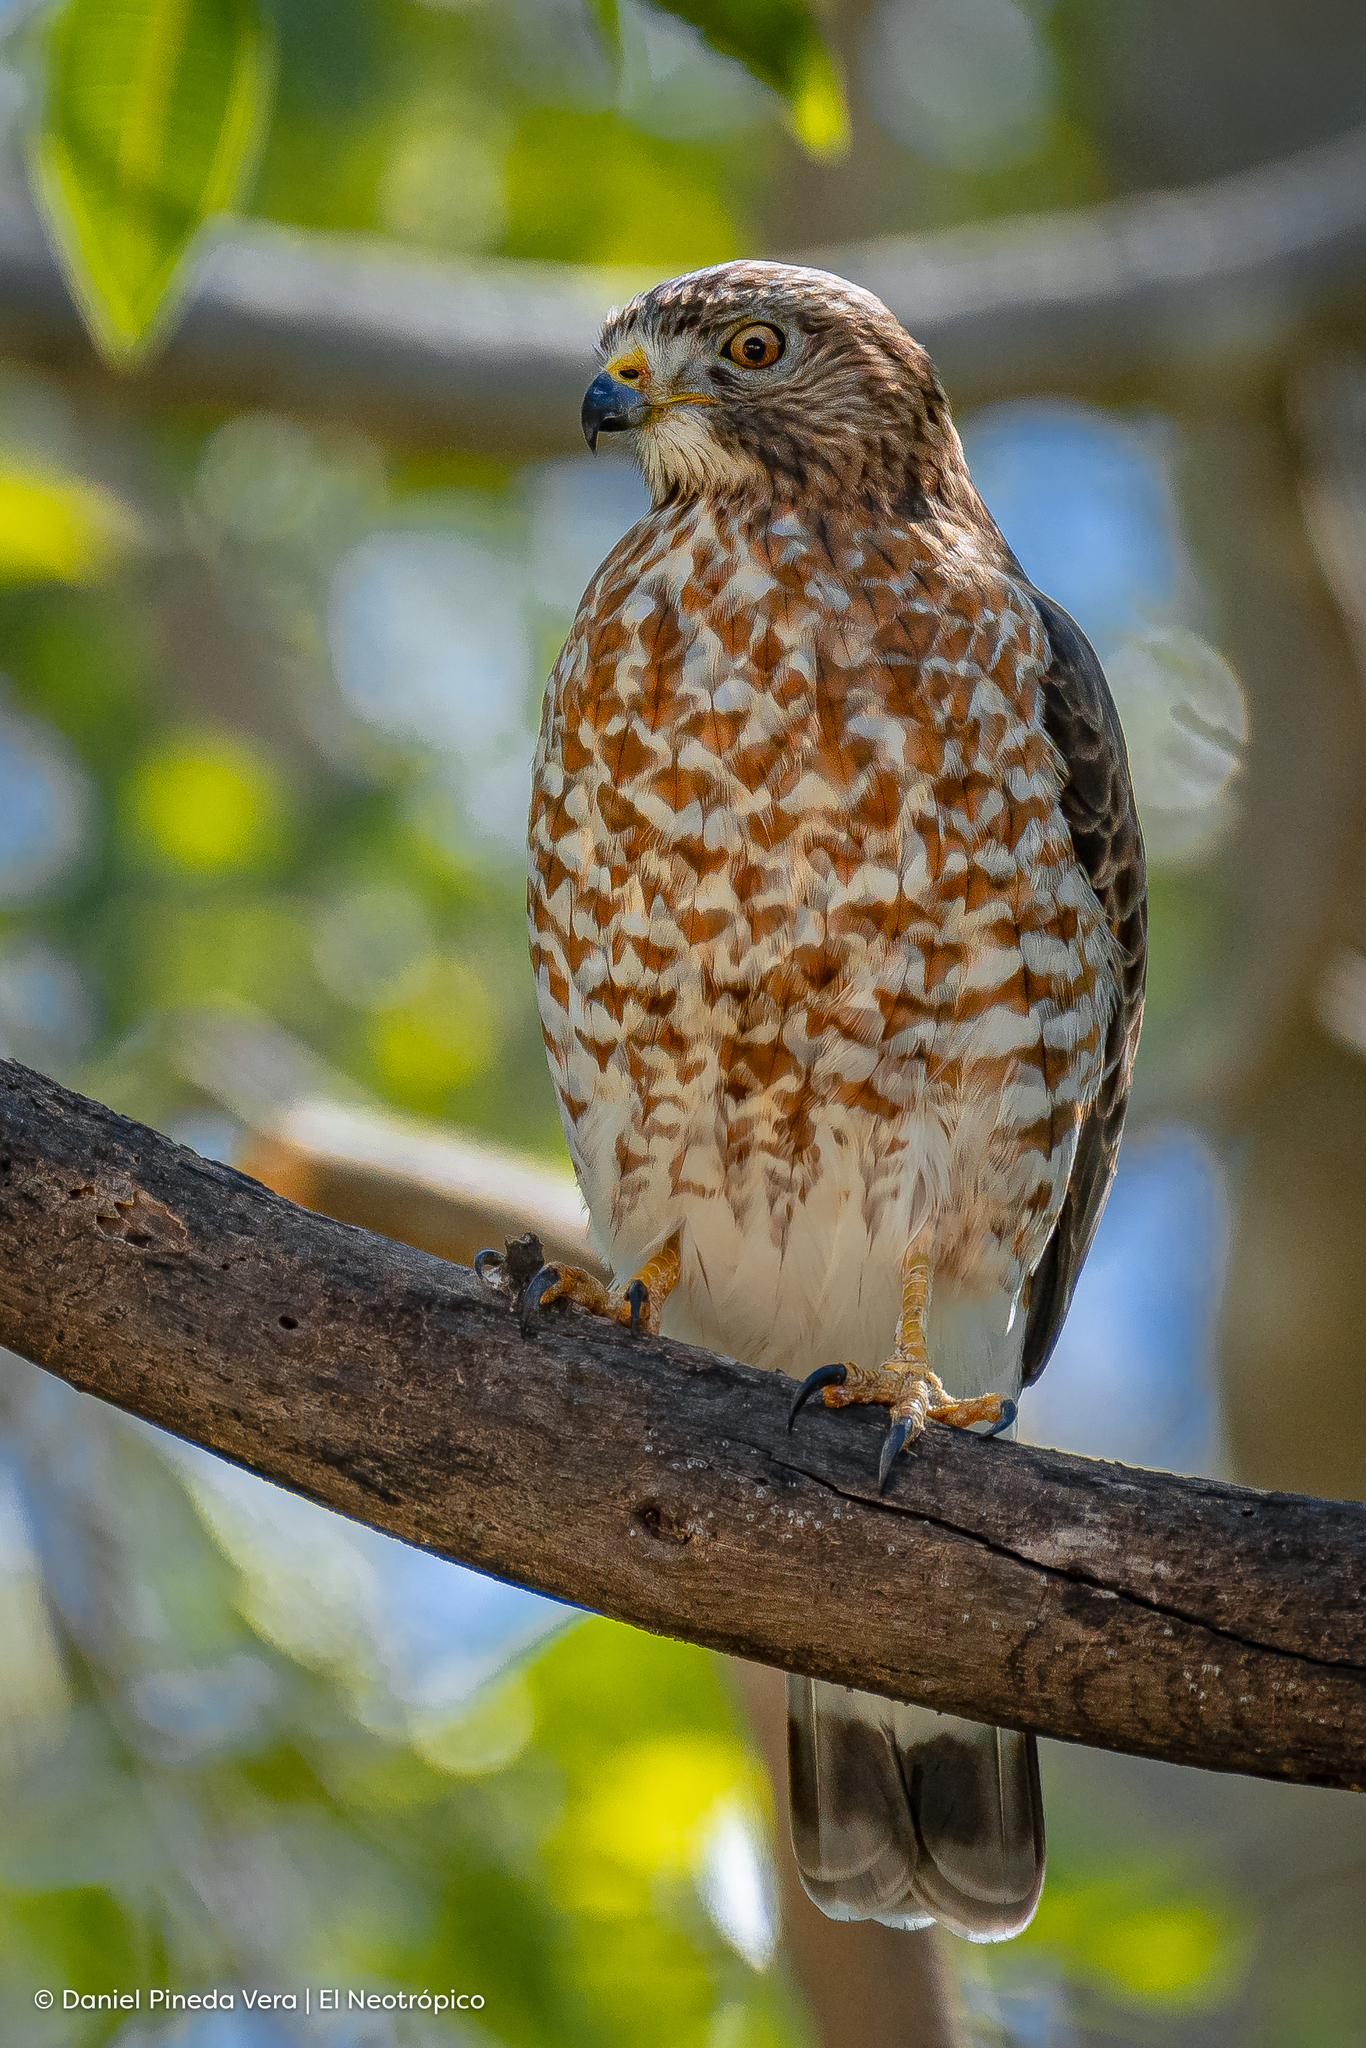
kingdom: Animalia
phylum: Chordata
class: Aves
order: Accipitriformes
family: Accipitridae
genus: Buteo
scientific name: Buteo platypterus
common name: Broad-winged hawk
